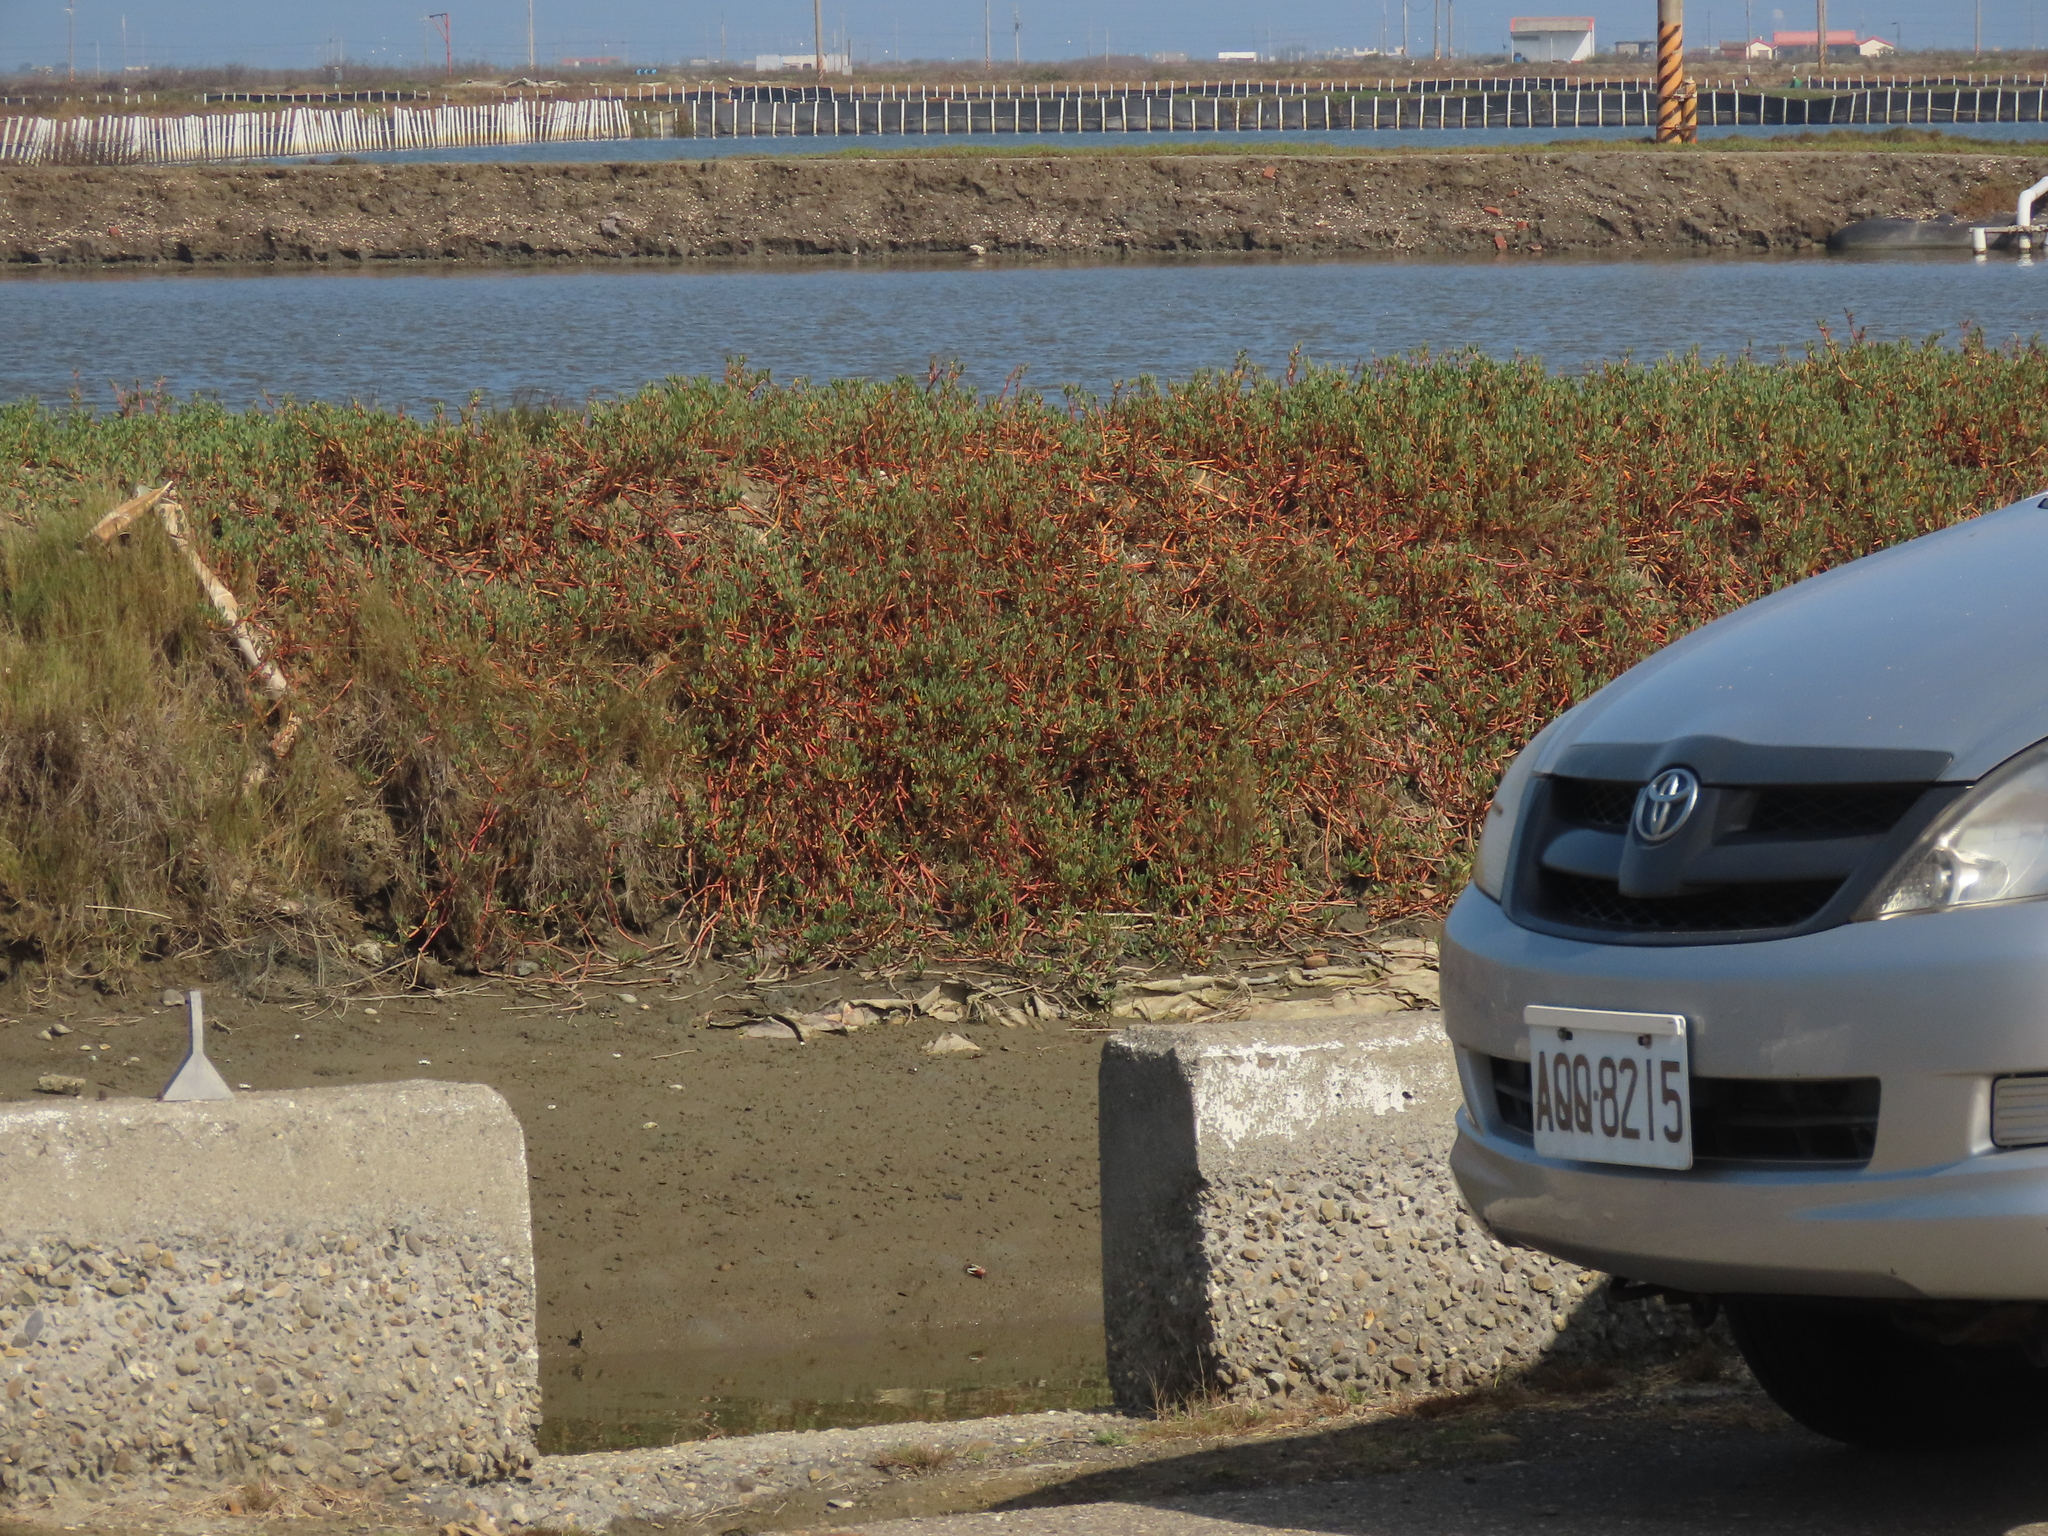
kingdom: Plantae
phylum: Tracheophyta
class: Magnoliopsida
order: Caryophyllales
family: Aizoaceae
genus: Sesuvium
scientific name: Sesuvium portulacastrum
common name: Sea-purslane
